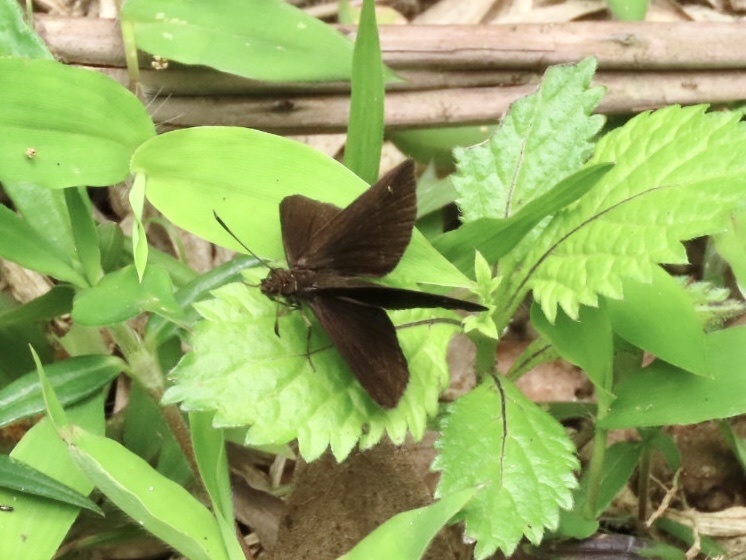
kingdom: Animalia
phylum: Arthropoda
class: Insecta
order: Lepidoptera
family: Hesperiidae
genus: Astictopterus
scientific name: Astictopterus jama
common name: Forest hopper
